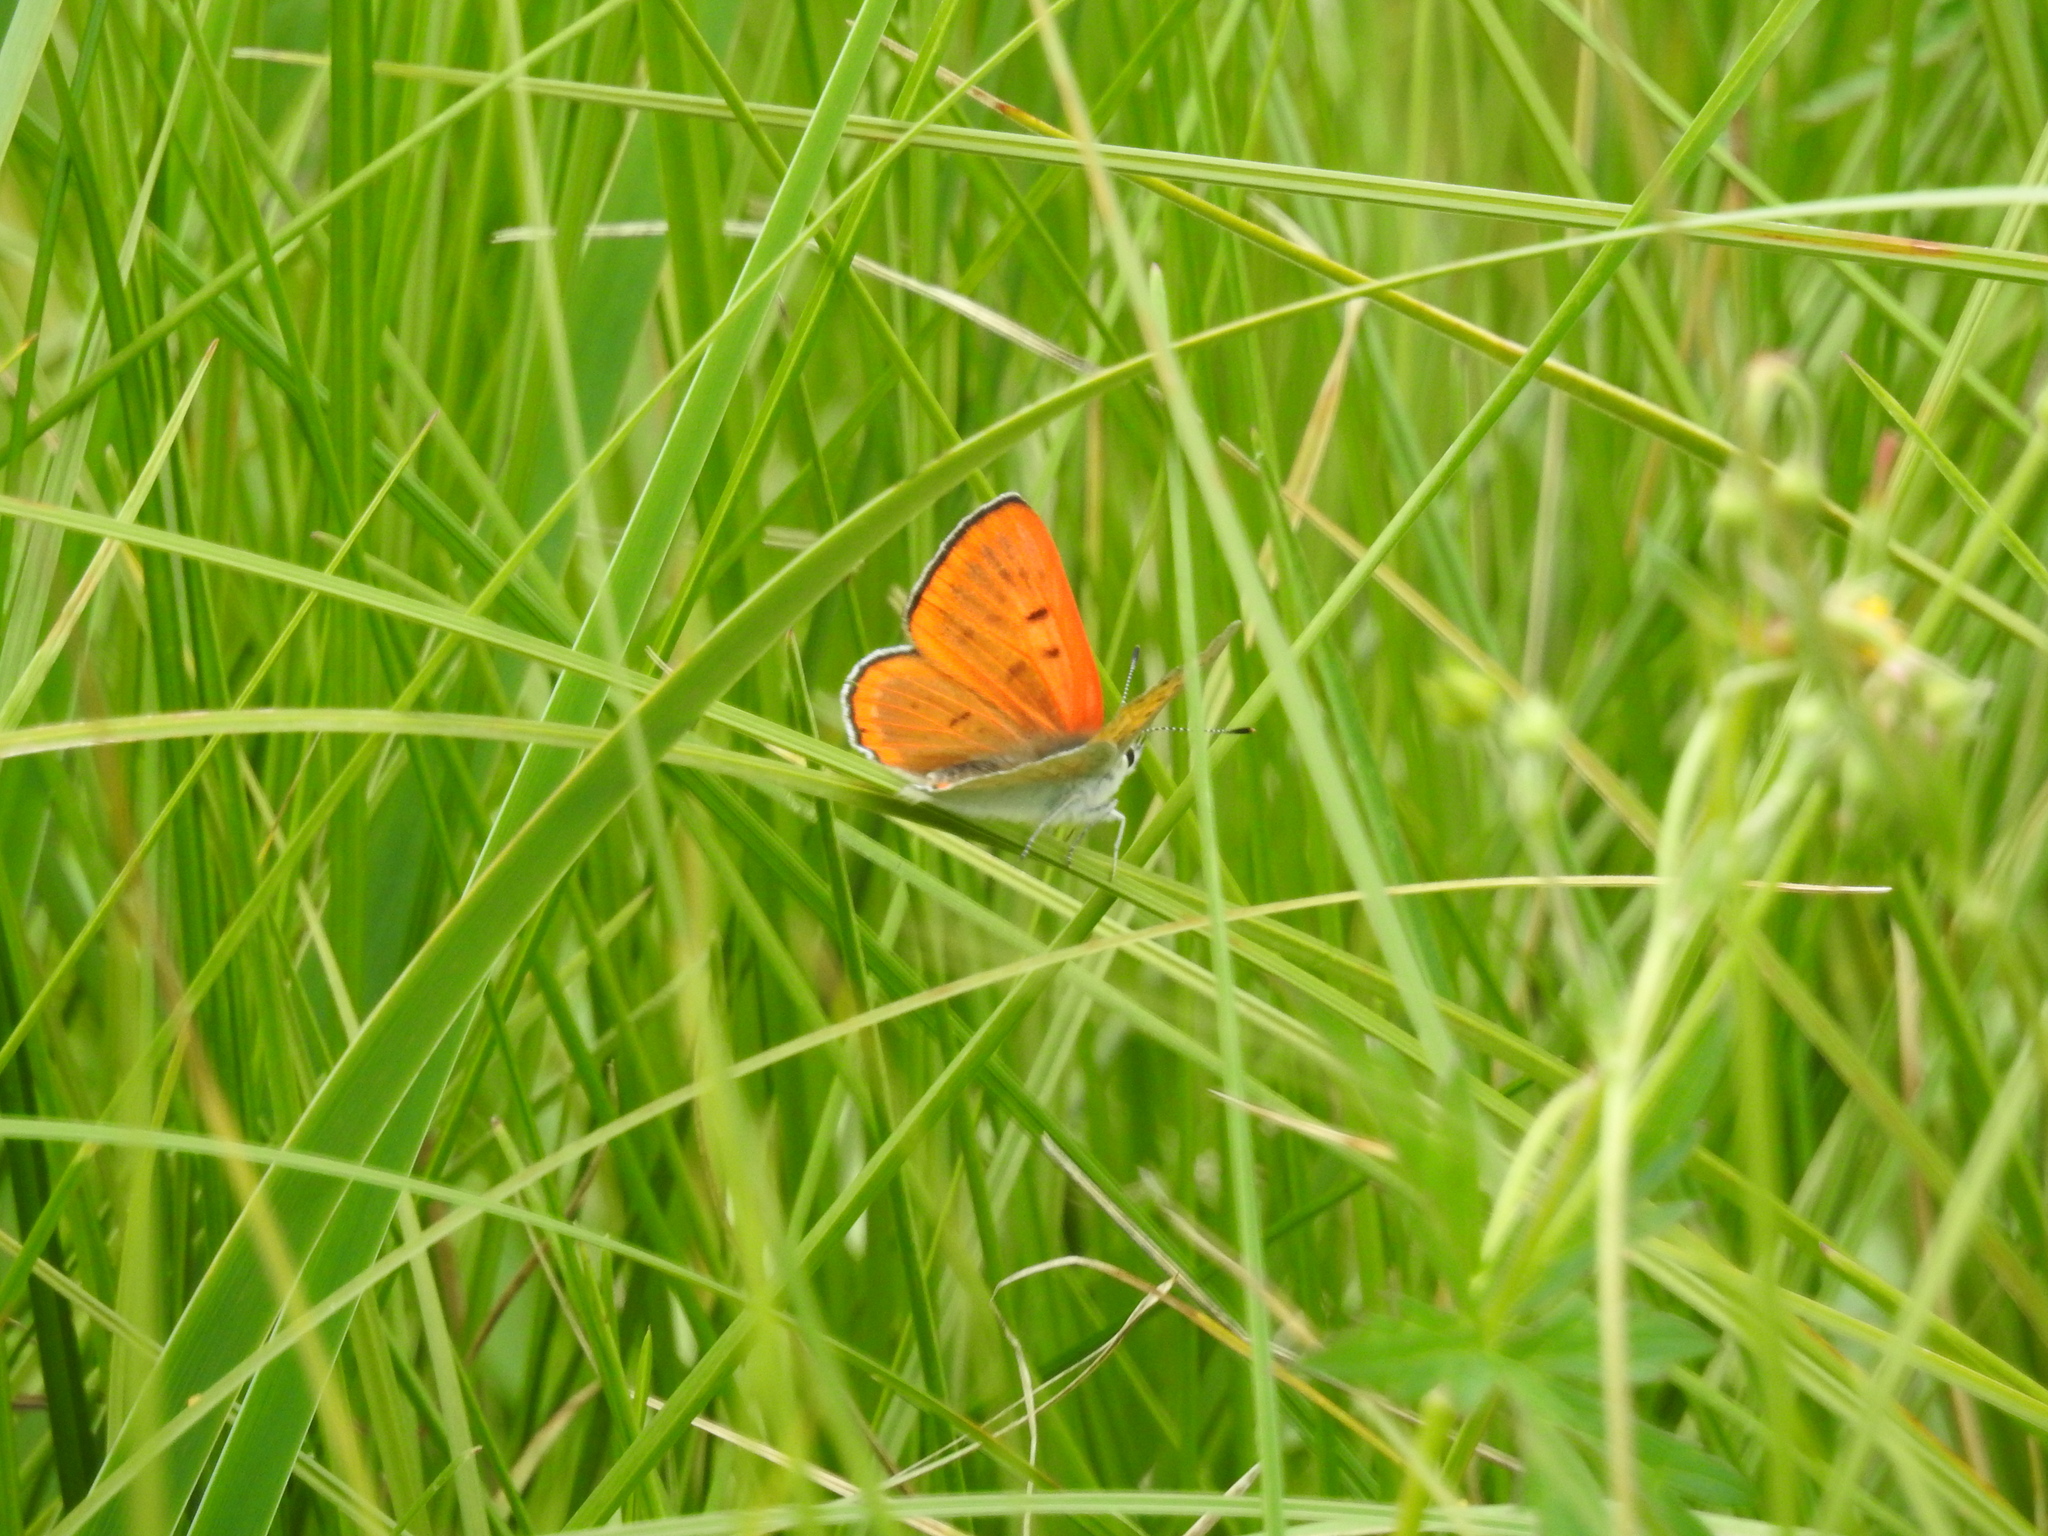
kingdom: Animalia
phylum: Arthropoda
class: Insecta
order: Lepidoptera
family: Lycaenidae
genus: Tharsalea
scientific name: Tharsalea rubidus
